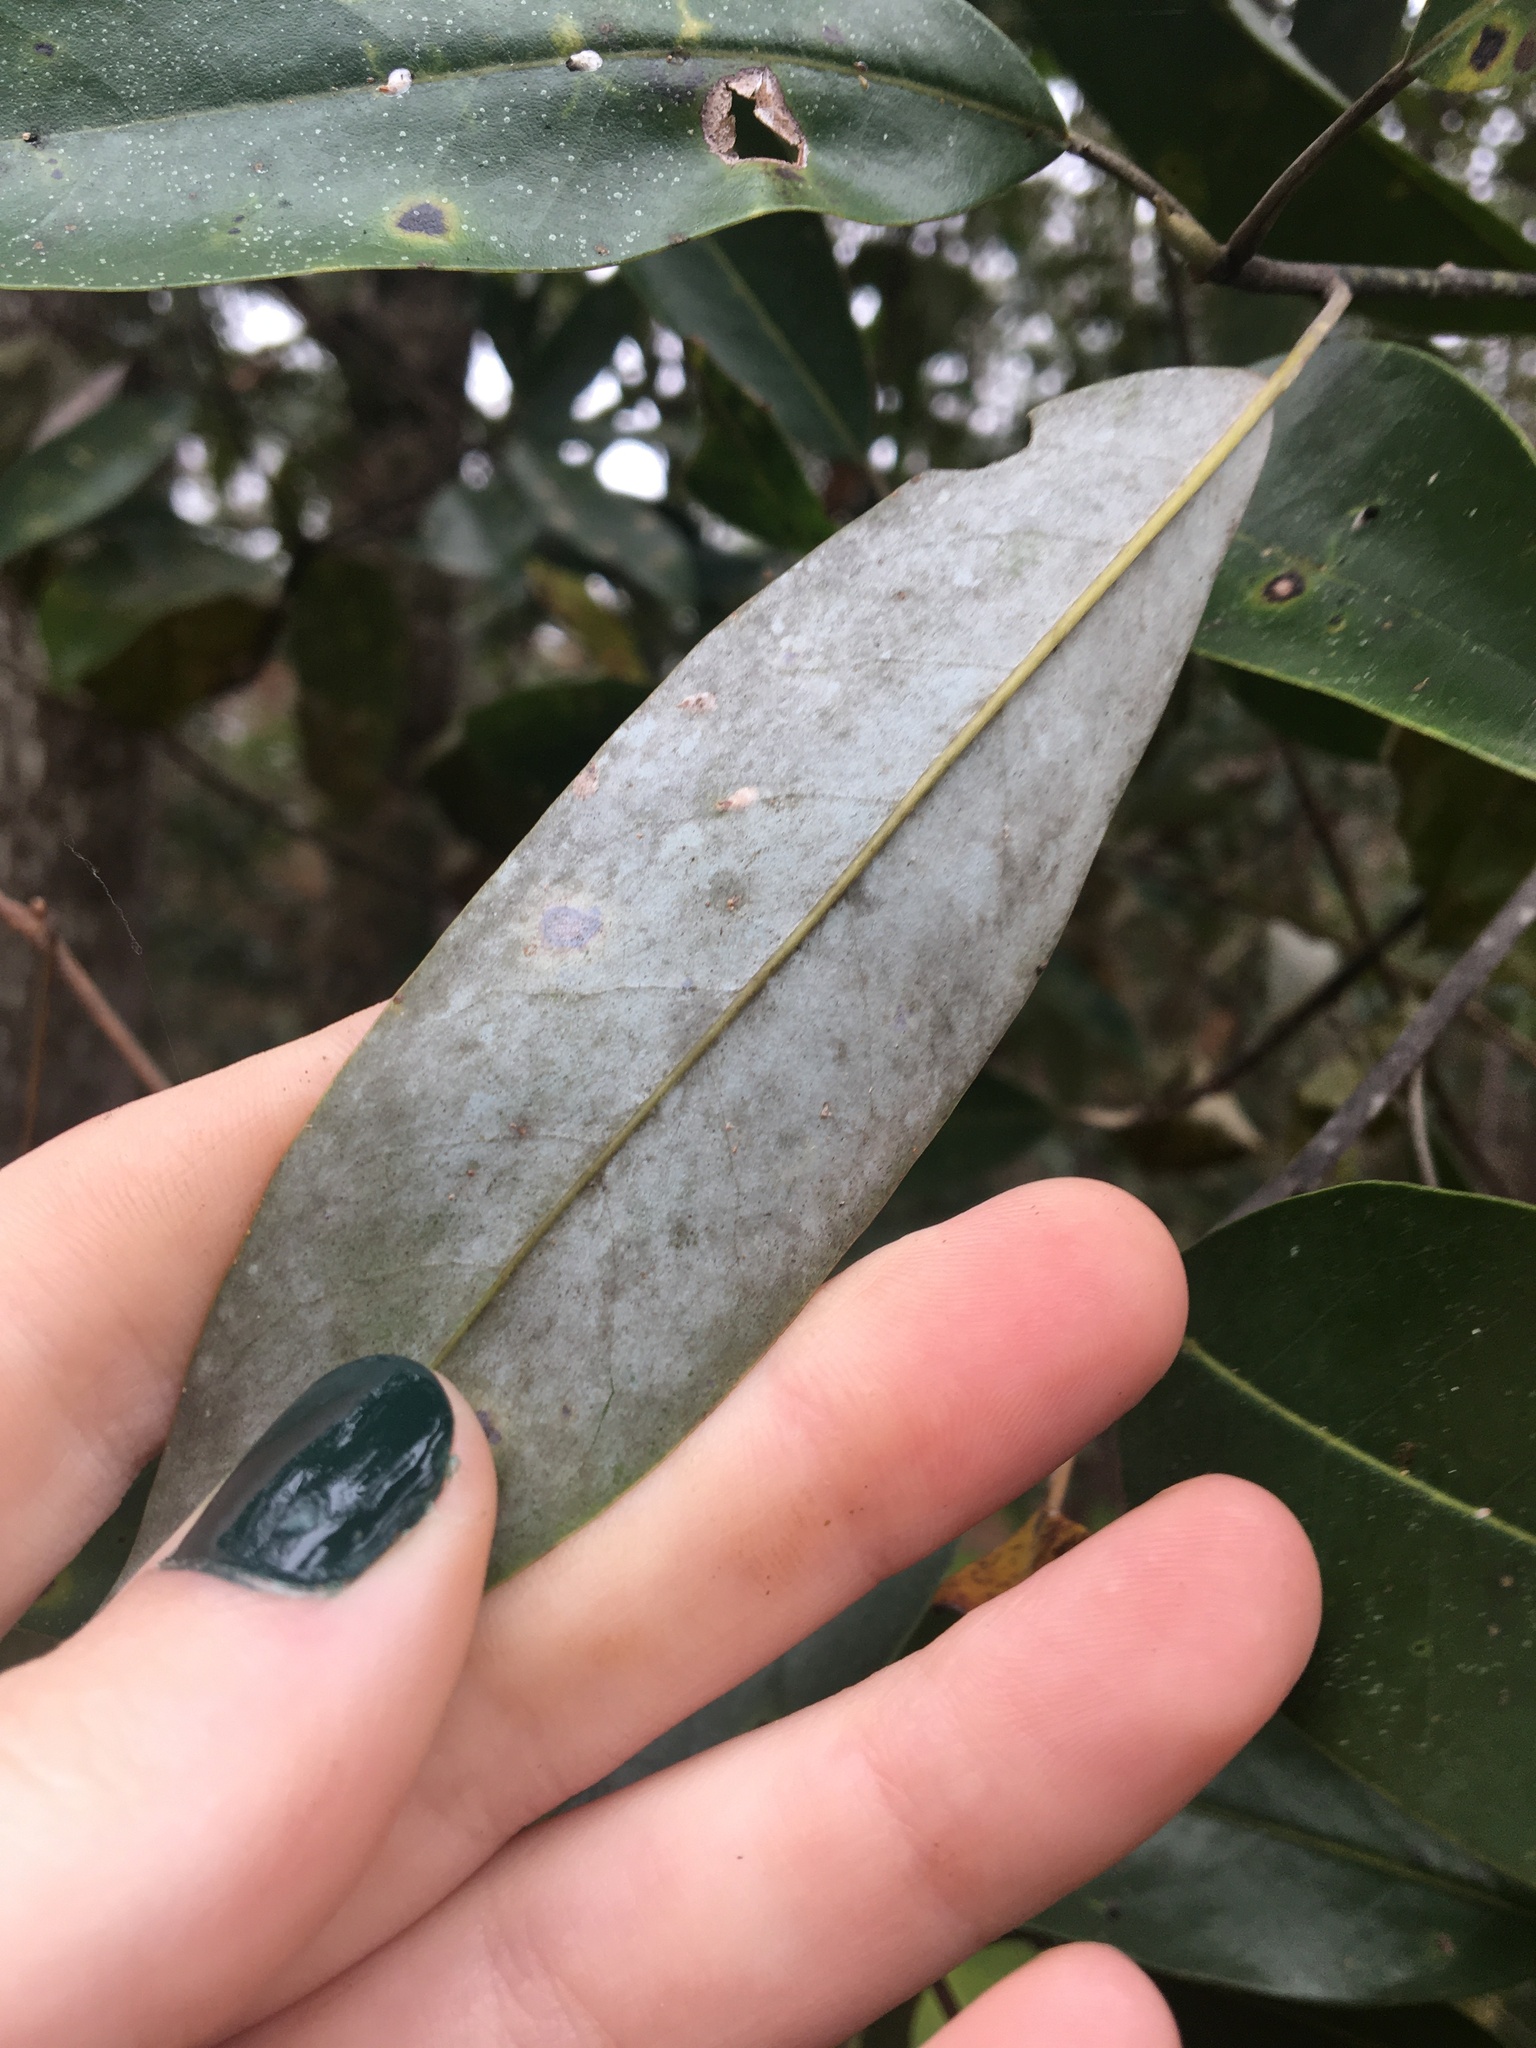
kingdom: Plantae
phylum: Tracheophyta
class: Magnoliopsida
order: Magnoliales
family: Magnoliaceae
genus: Magnolia
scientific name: Magnolia virginiana
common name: Swamp bay
